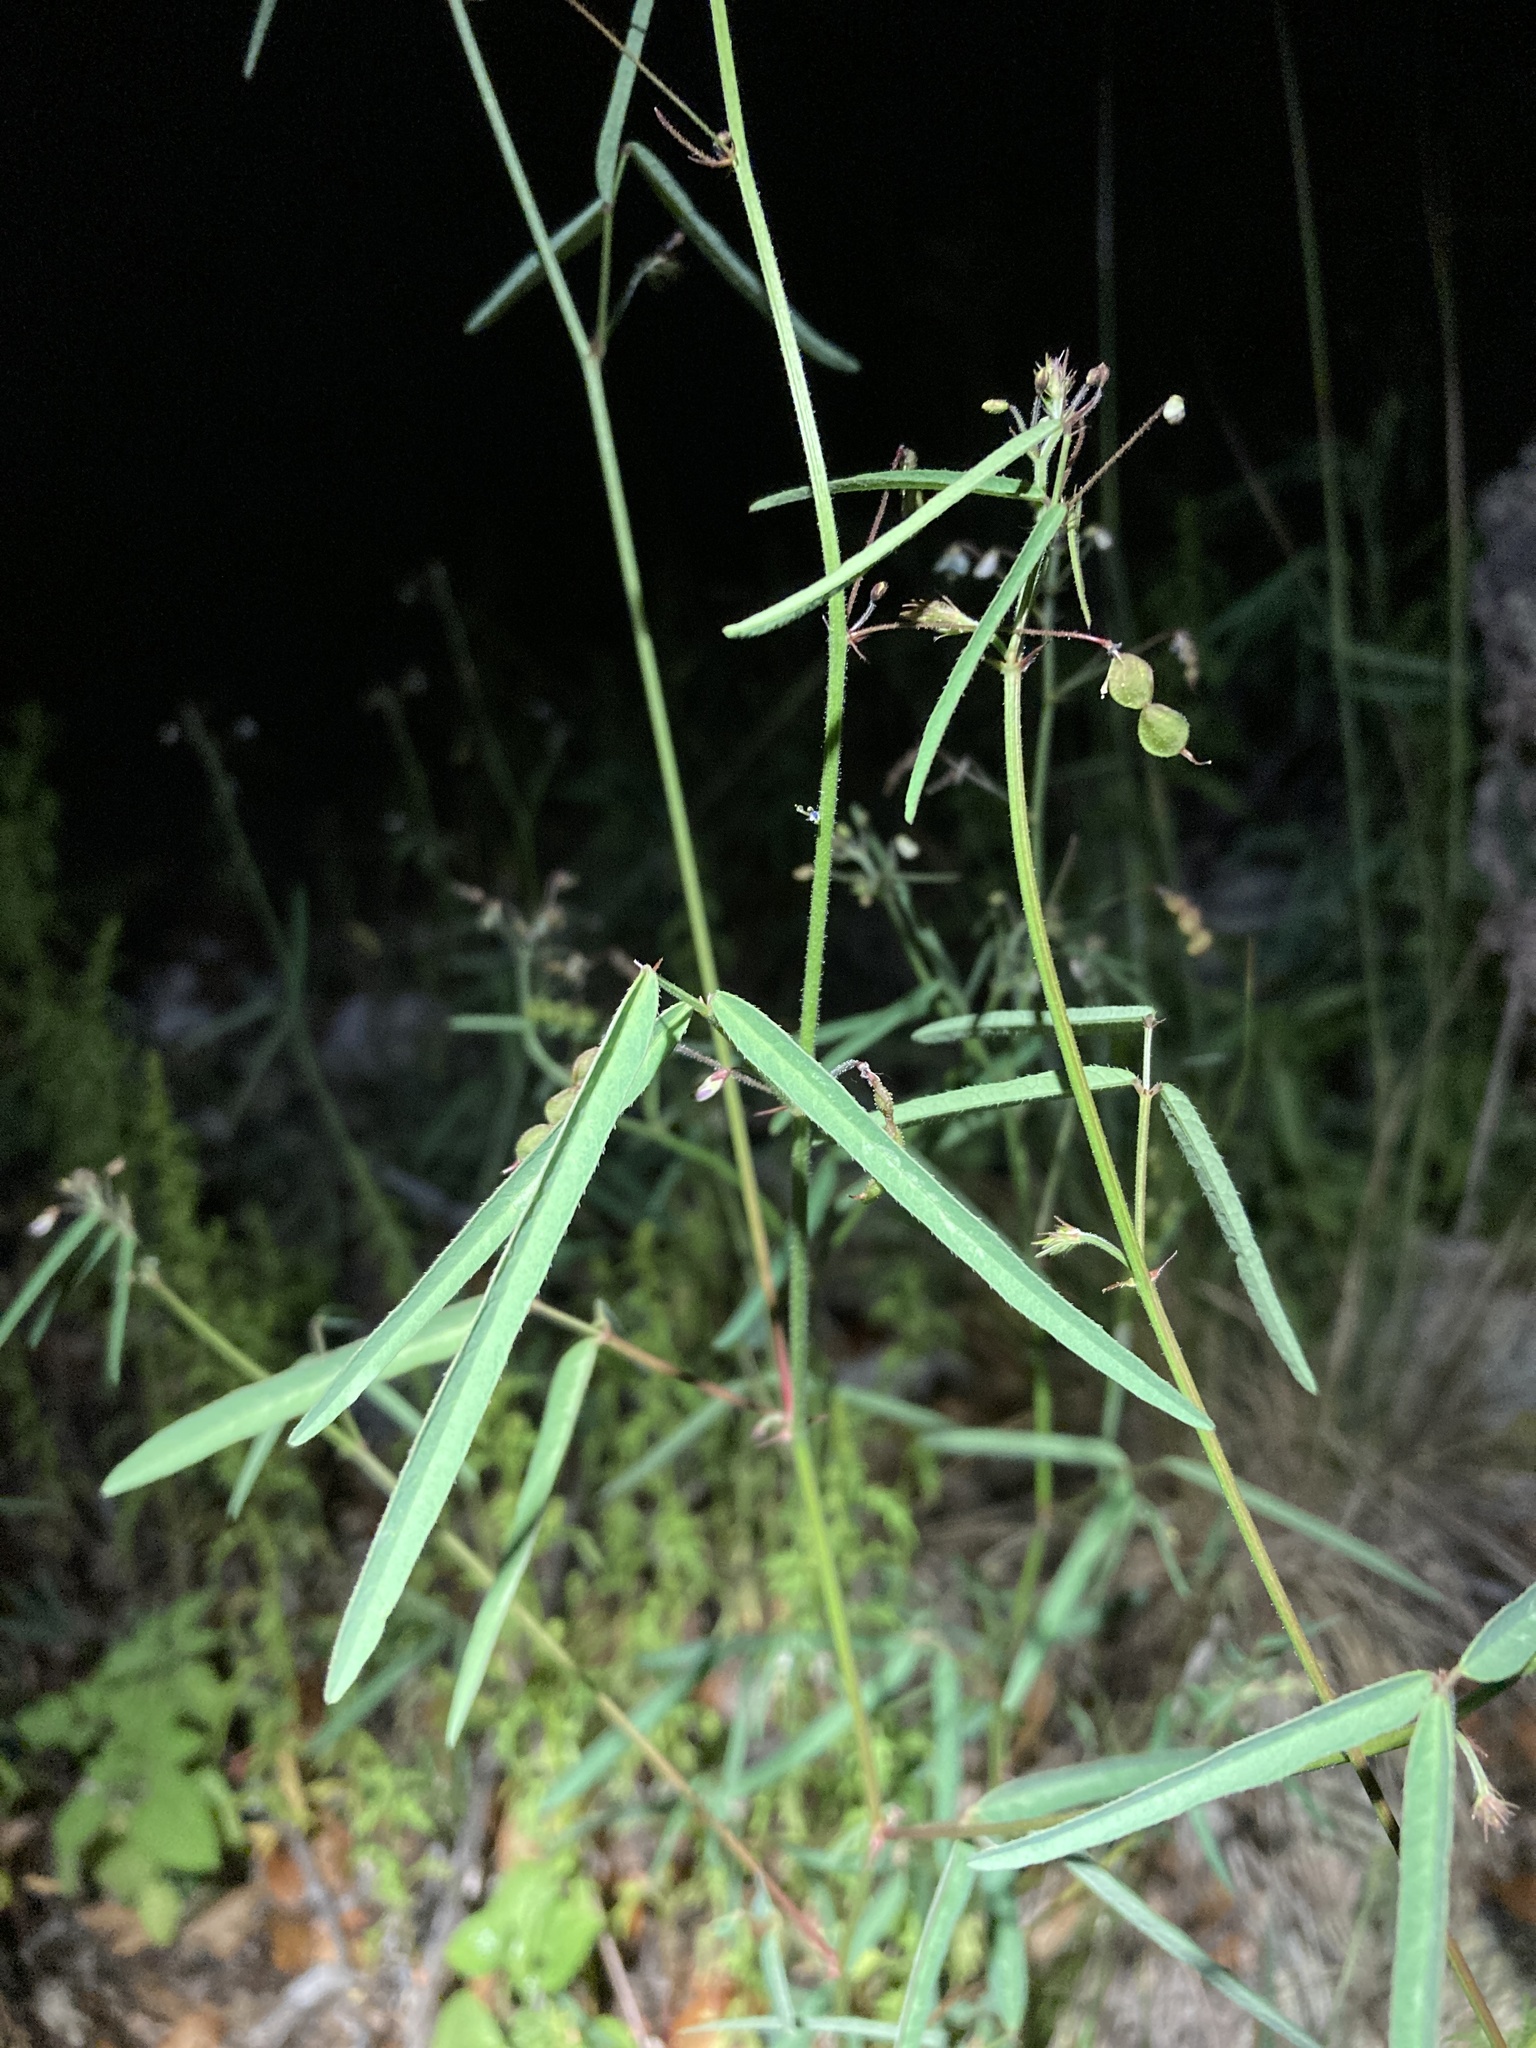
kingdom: Plantae
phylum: Tracheophyta
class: Magnoliopsida
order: Fabales
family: Fabaceae
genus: Desmodium
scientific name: Desmodium rosei
